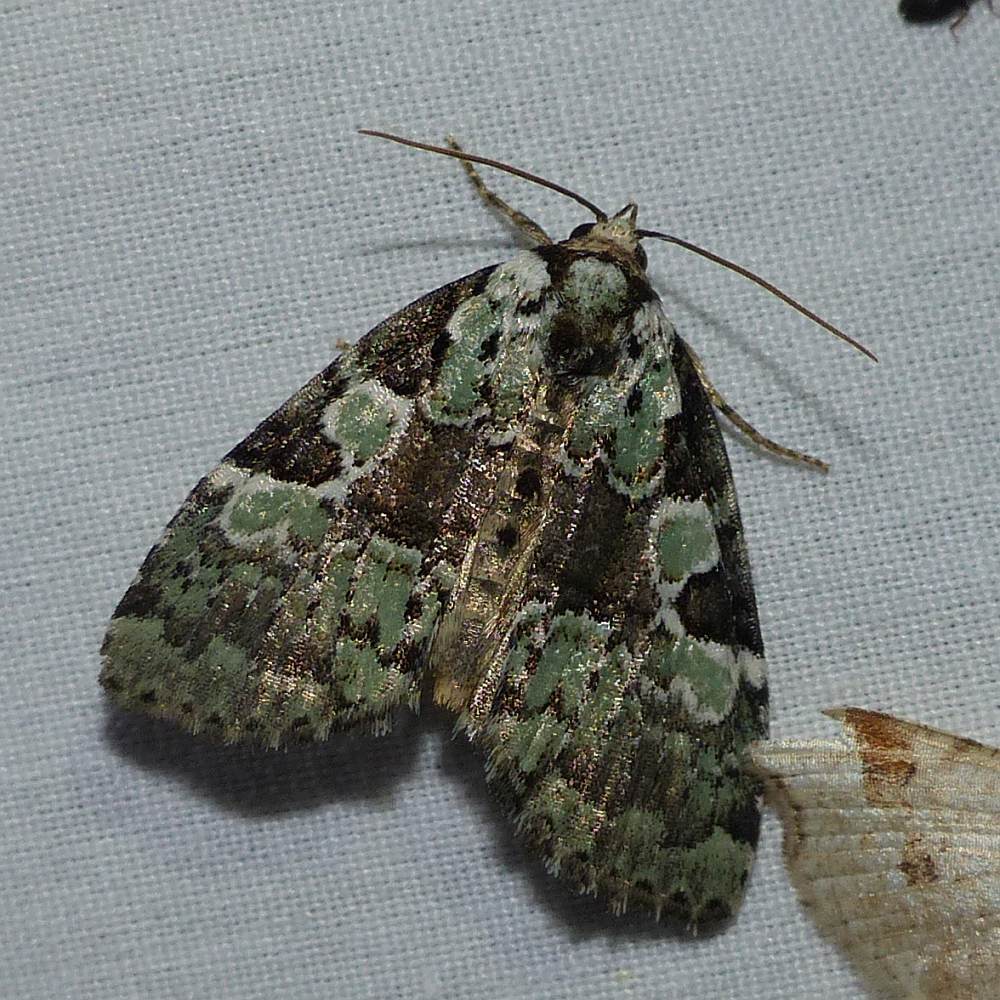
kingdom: Animalia
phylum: Arthropoda
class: Insecta
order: Lepidoptera
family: Noctuidae
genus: Leuconycta
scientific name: Leuconycta lepidula
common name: Marbled-green leuconycta moth
